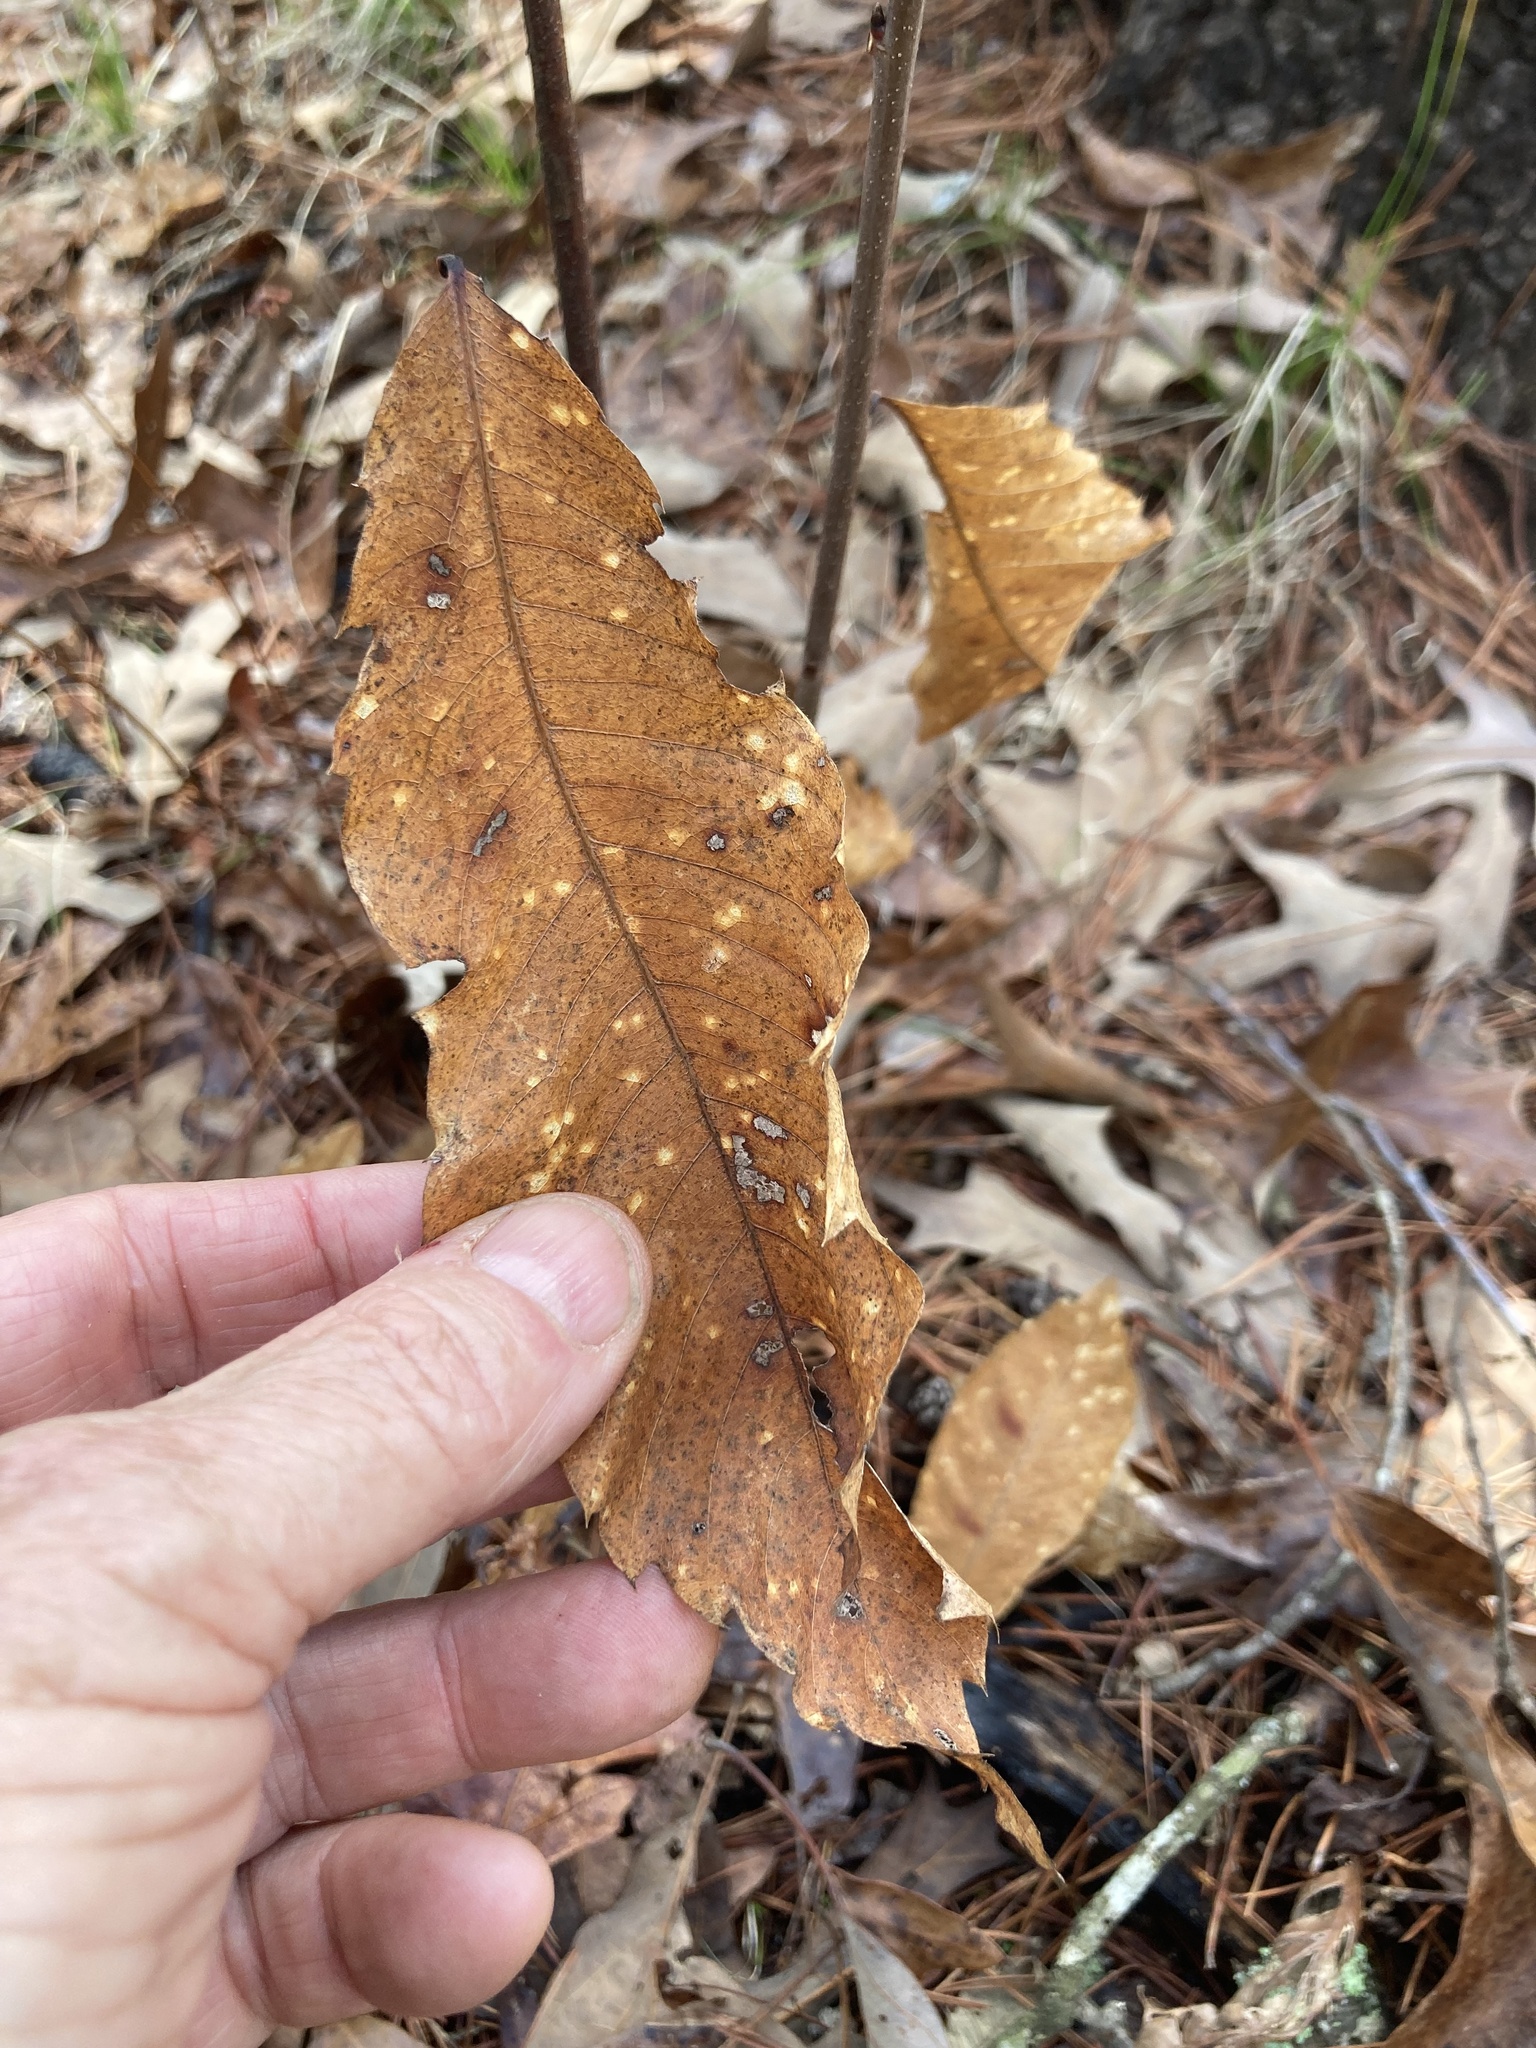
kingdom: Plantae
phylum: Tracheophyta
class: Magnoliopsida
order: Fagales
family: Fagaceae
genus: Castanea
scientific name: Castanea ozarkensis
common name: Ozark chinkapin
